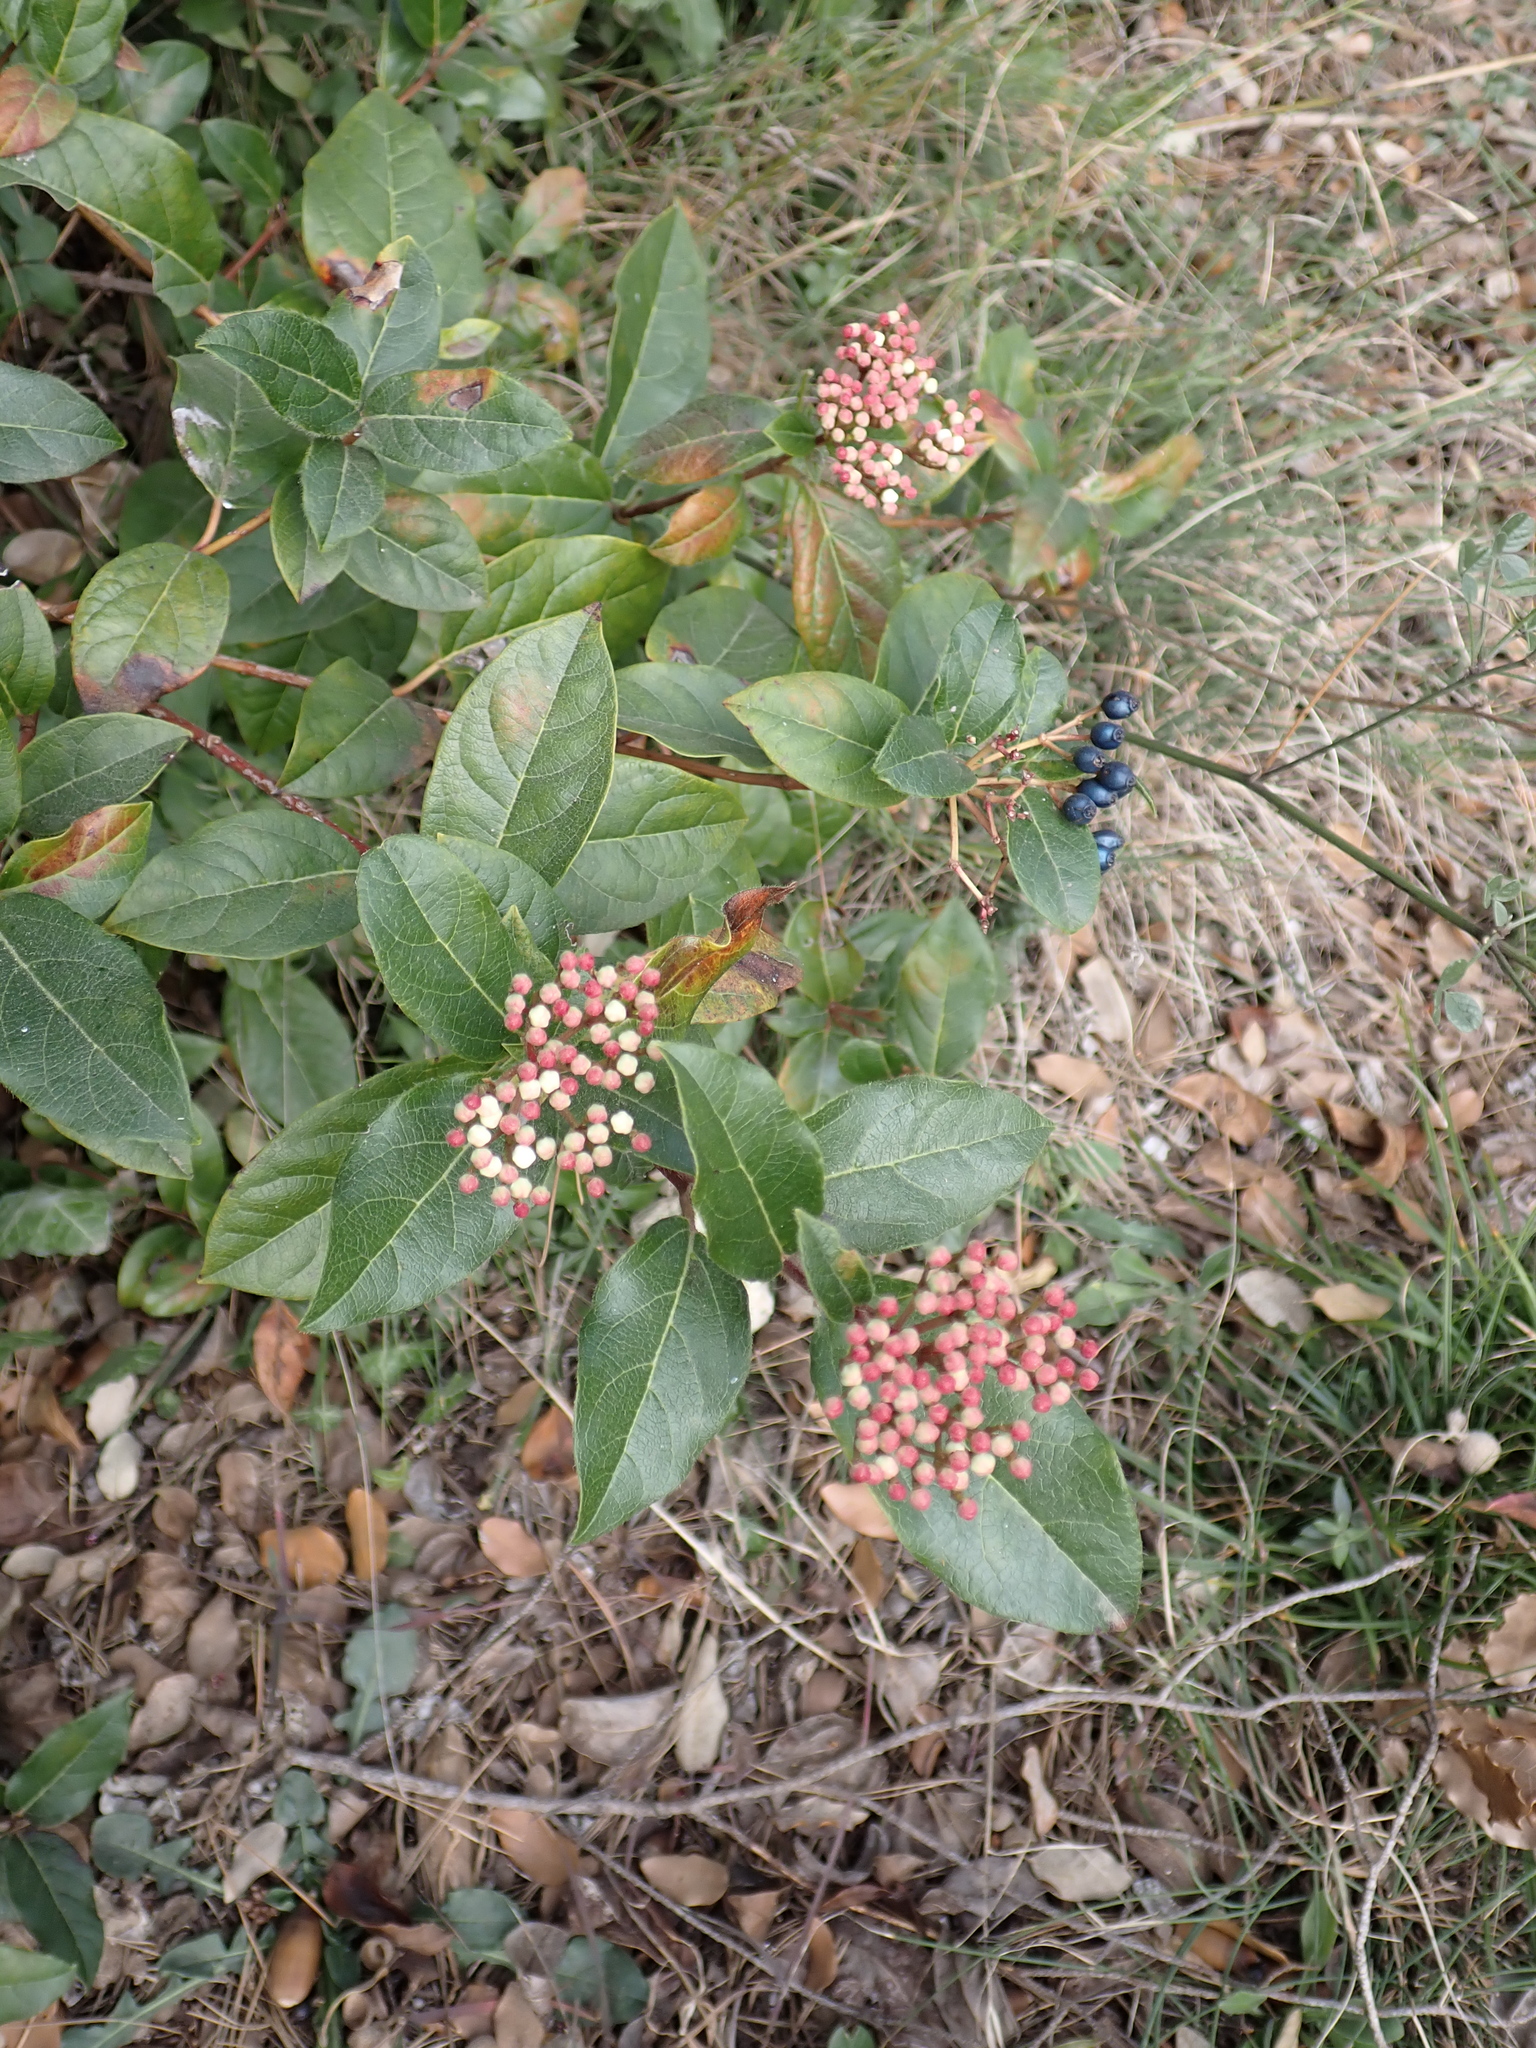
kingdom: Plantae
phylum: Tracheophyta
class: Magnoliopsida
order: Dipsacales
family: Viburnaceae
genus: Viburnum
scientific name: Viburnum tinus
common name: Laurustinus
